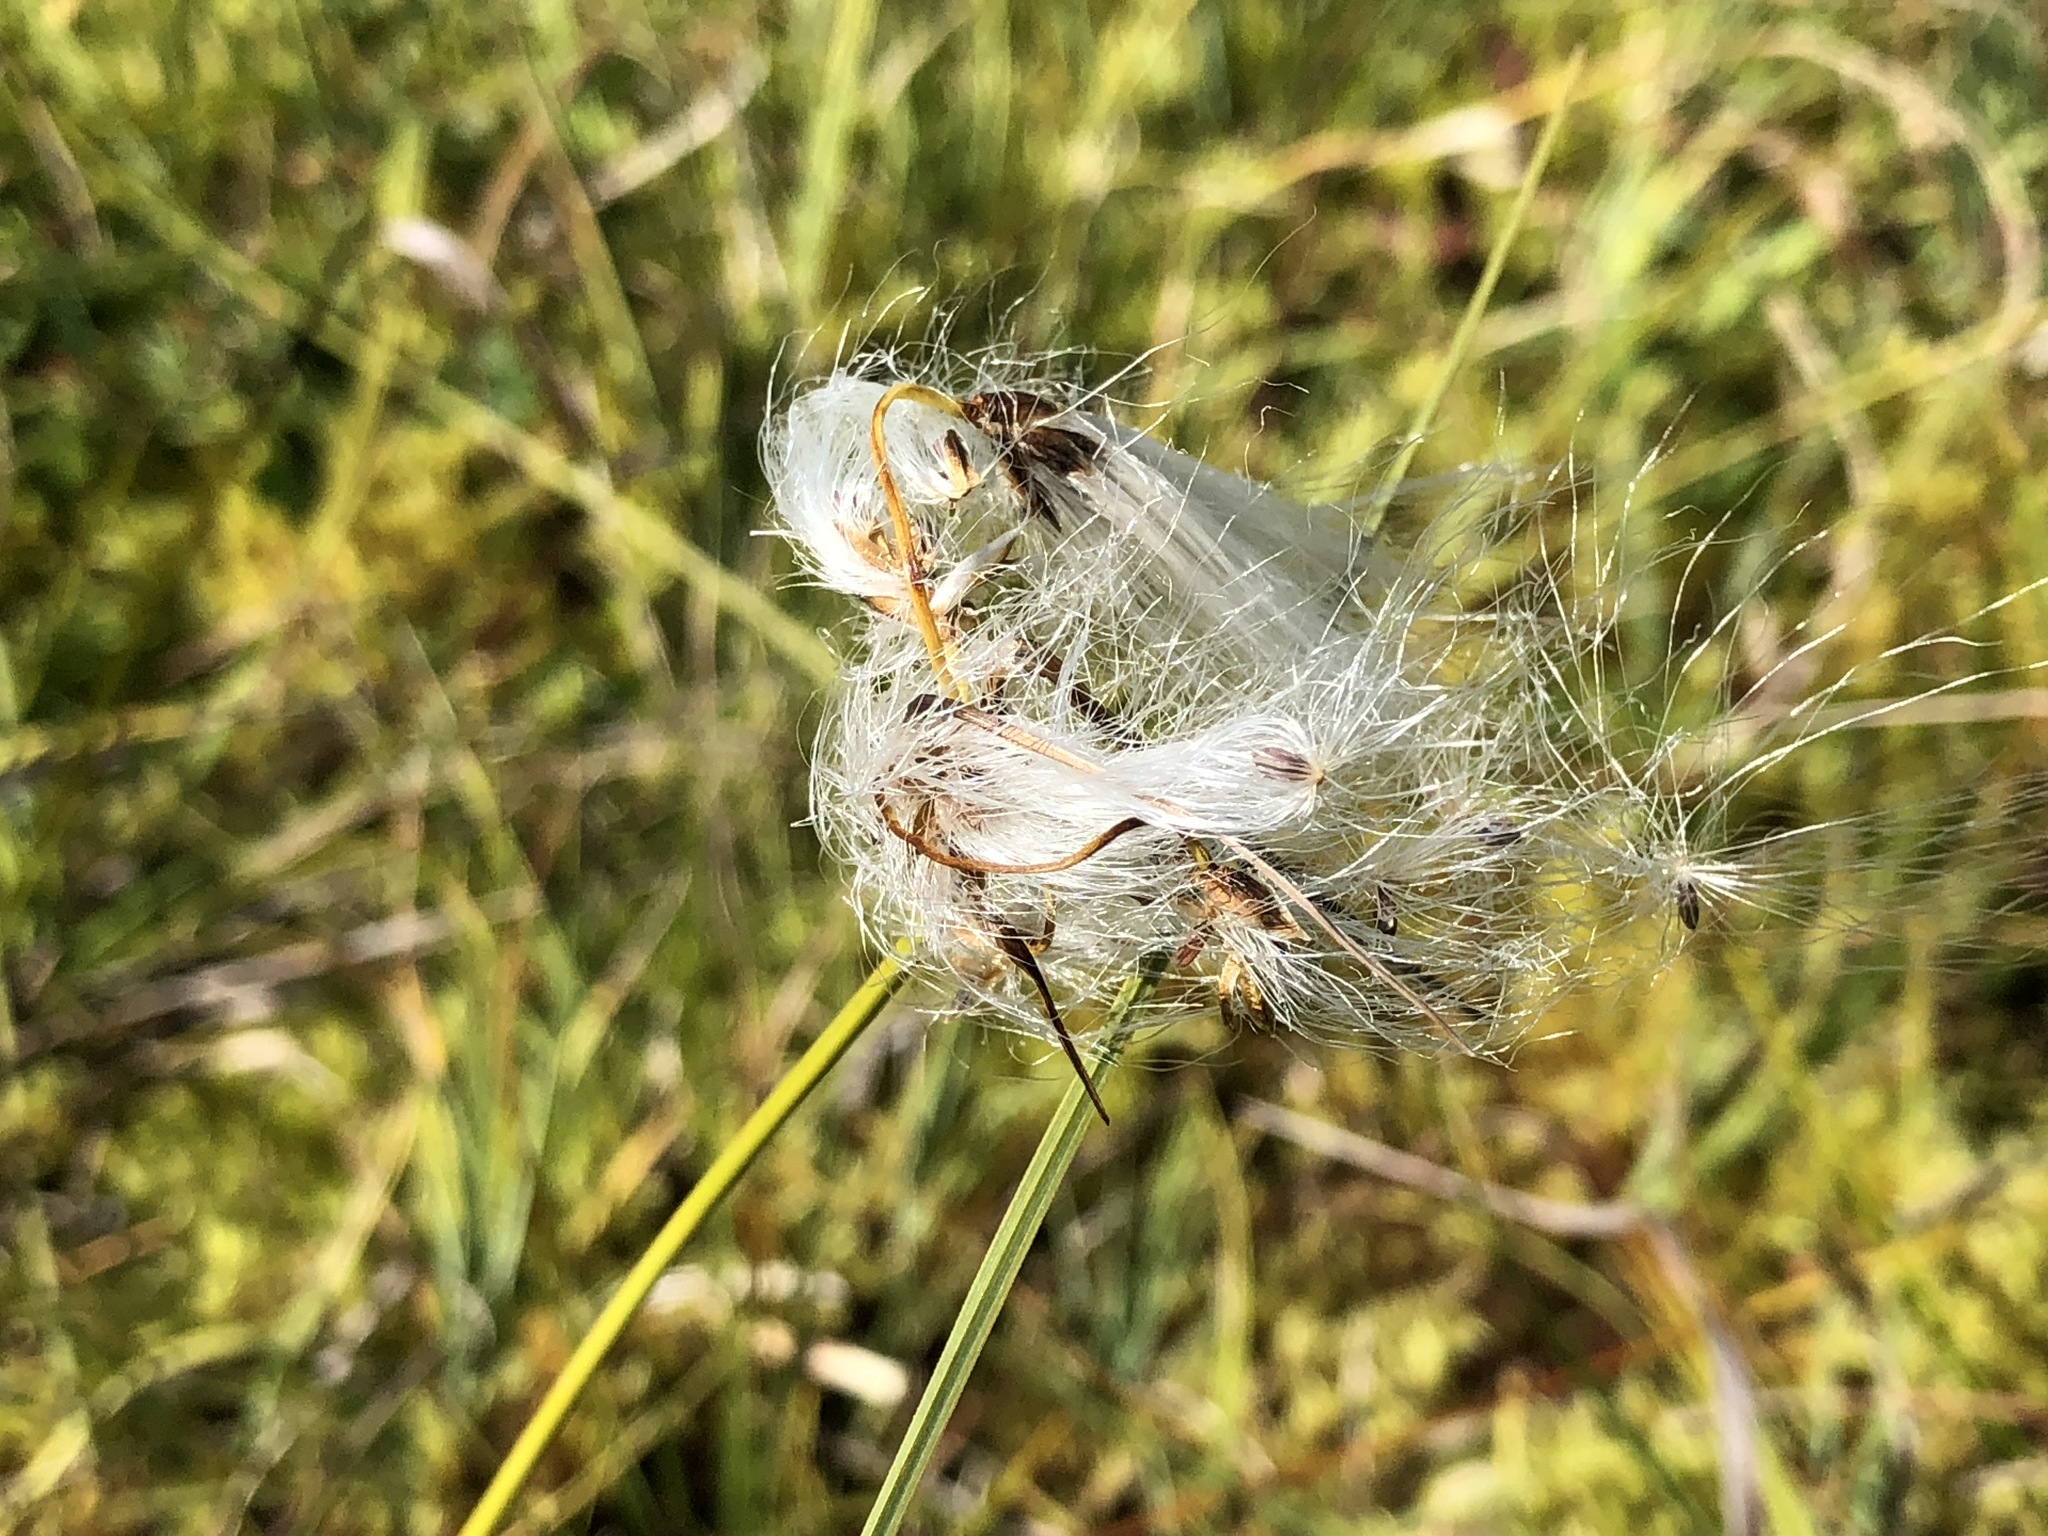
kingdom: Plantae
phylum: Tracheophyta
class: Liliopsida
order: Poales
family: Cyperaceae
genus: Eriophorum
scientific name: Eriophorum angustifolium
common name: Common cottongrass
